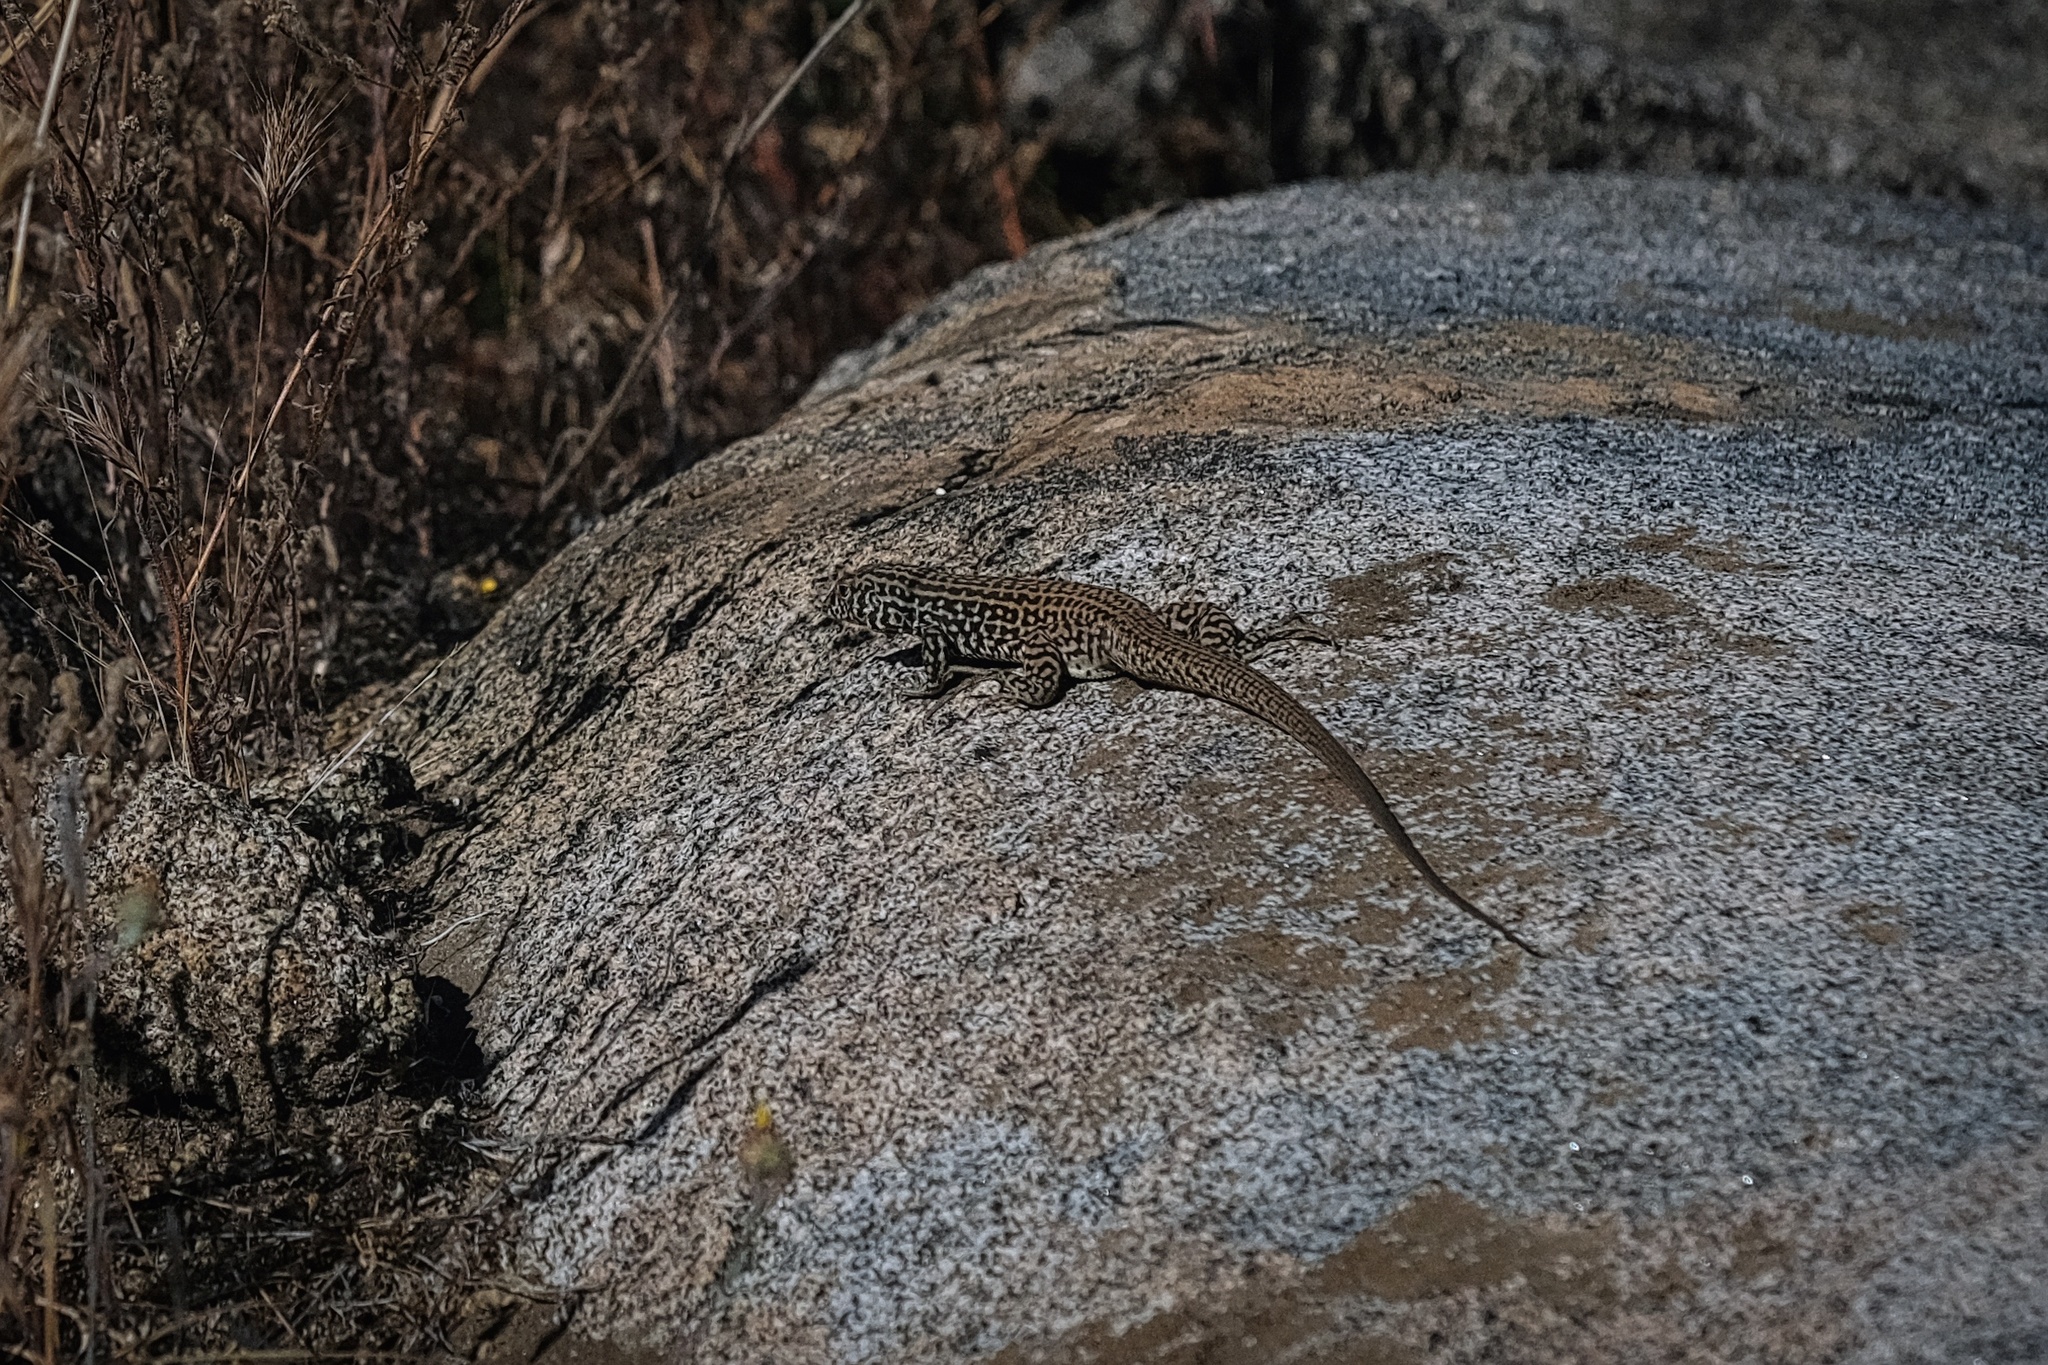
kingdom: Animalia
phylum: Chordata
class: Squamata
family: Teiidae
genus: Aspidoscelis
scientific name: Aspidoscelis tigris
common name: Tiger whiptail
